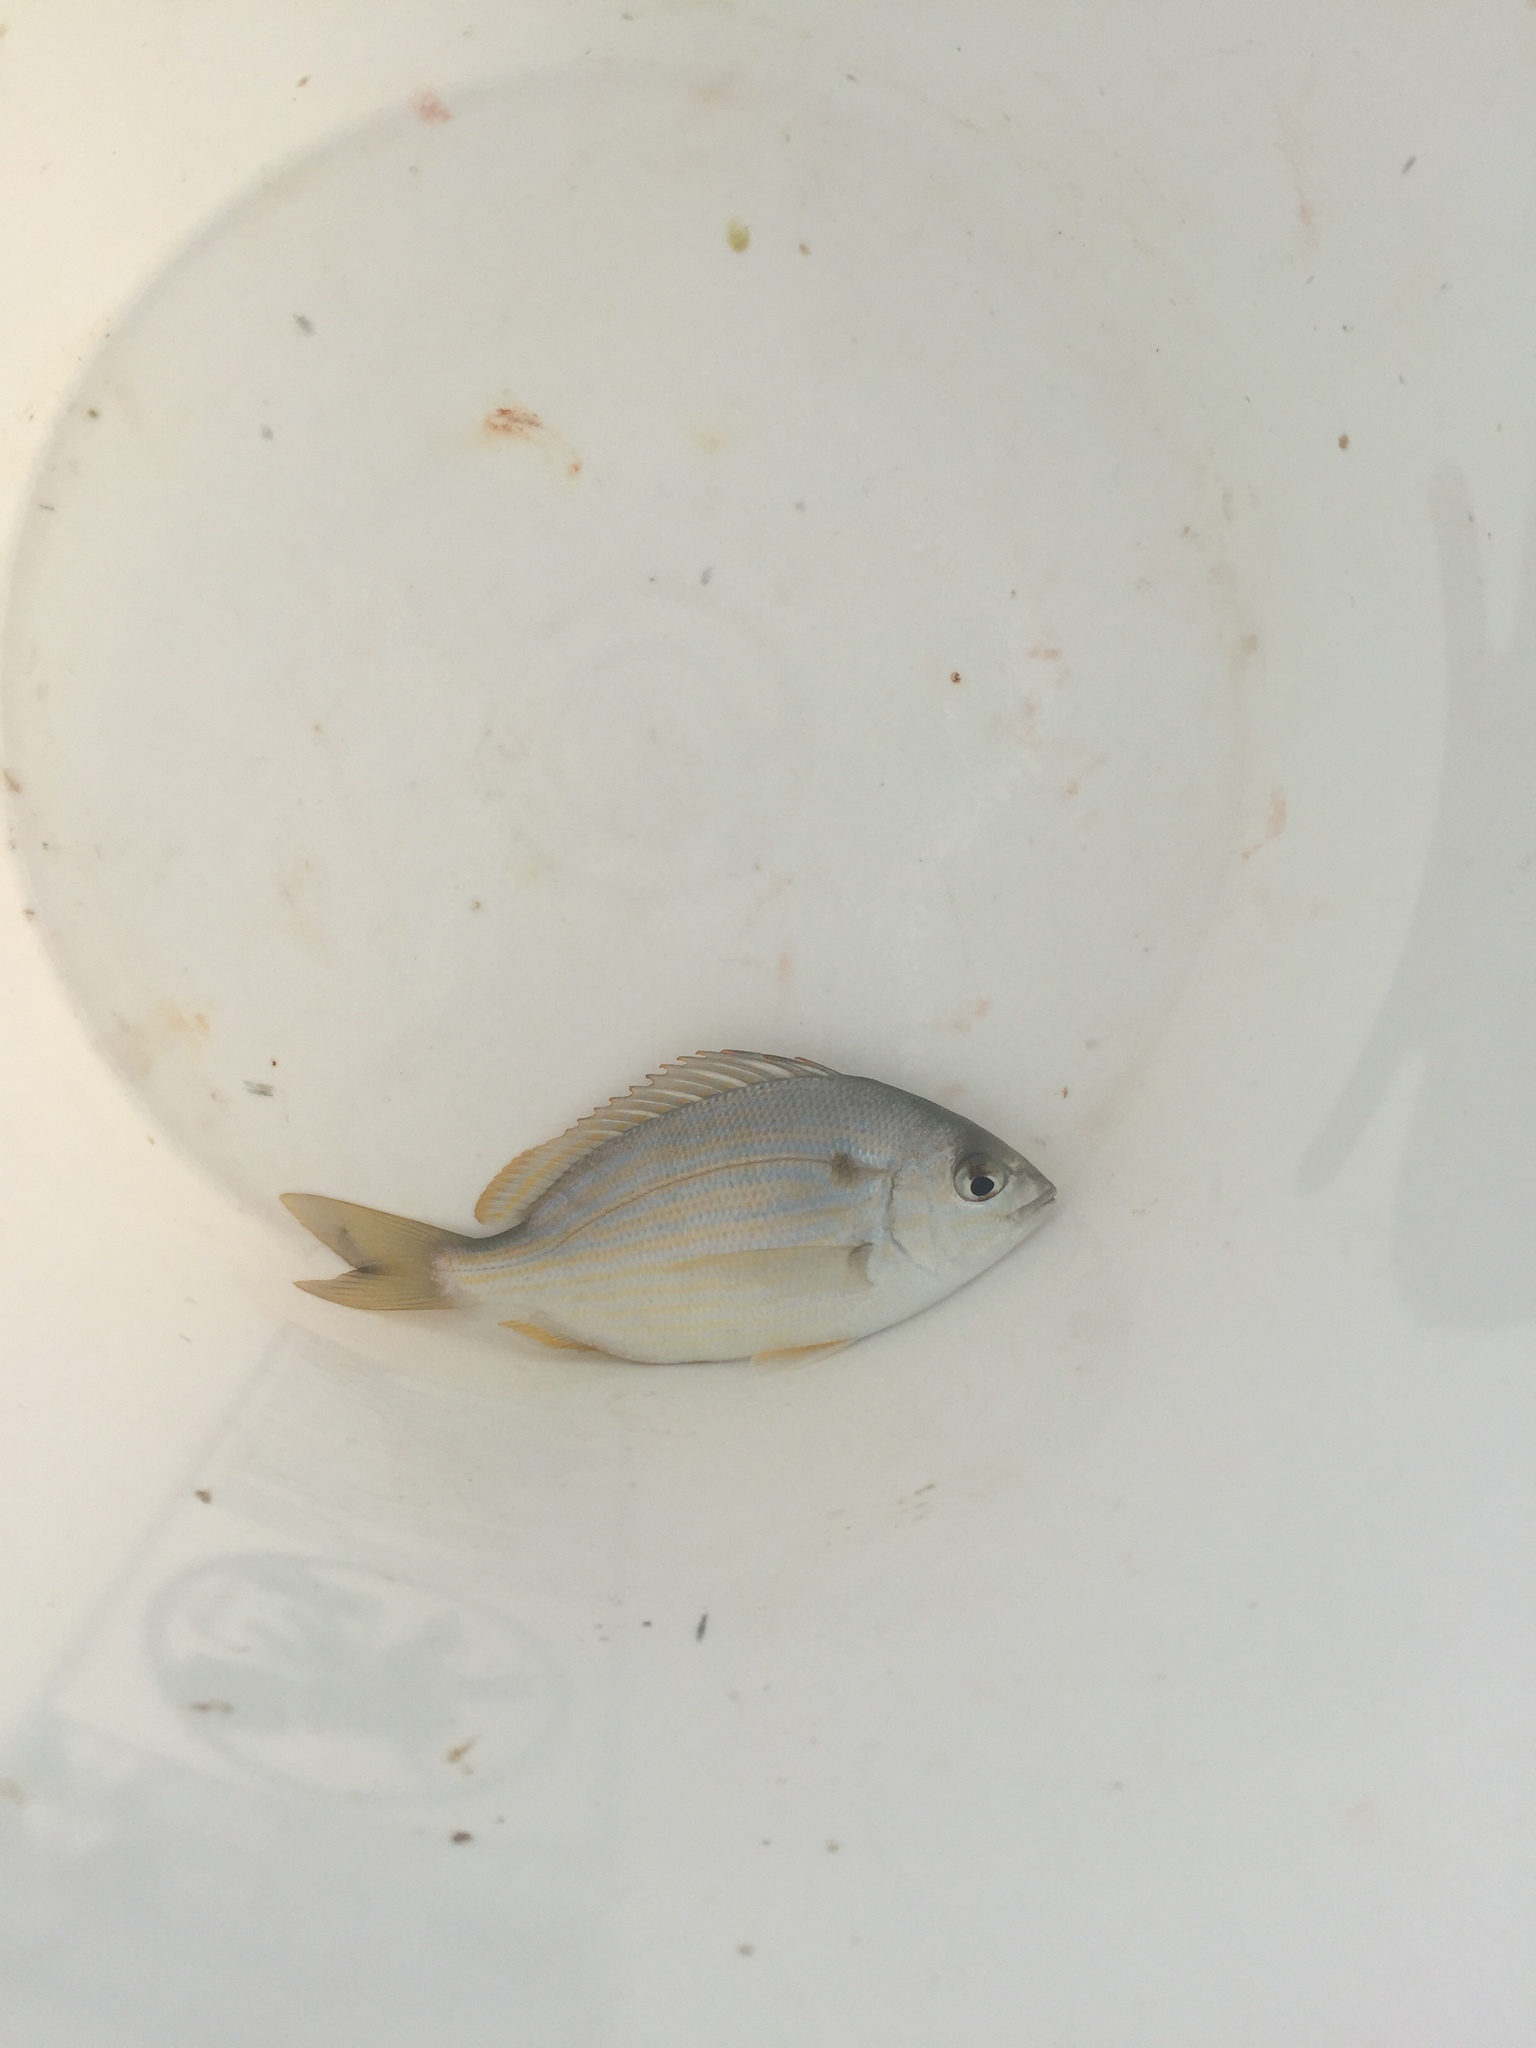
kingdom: Animalia
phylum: Chordata
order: Perciformes
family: Sparidae
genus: Lagodon
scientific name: Lagodon rhomboides
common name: Pinfish
